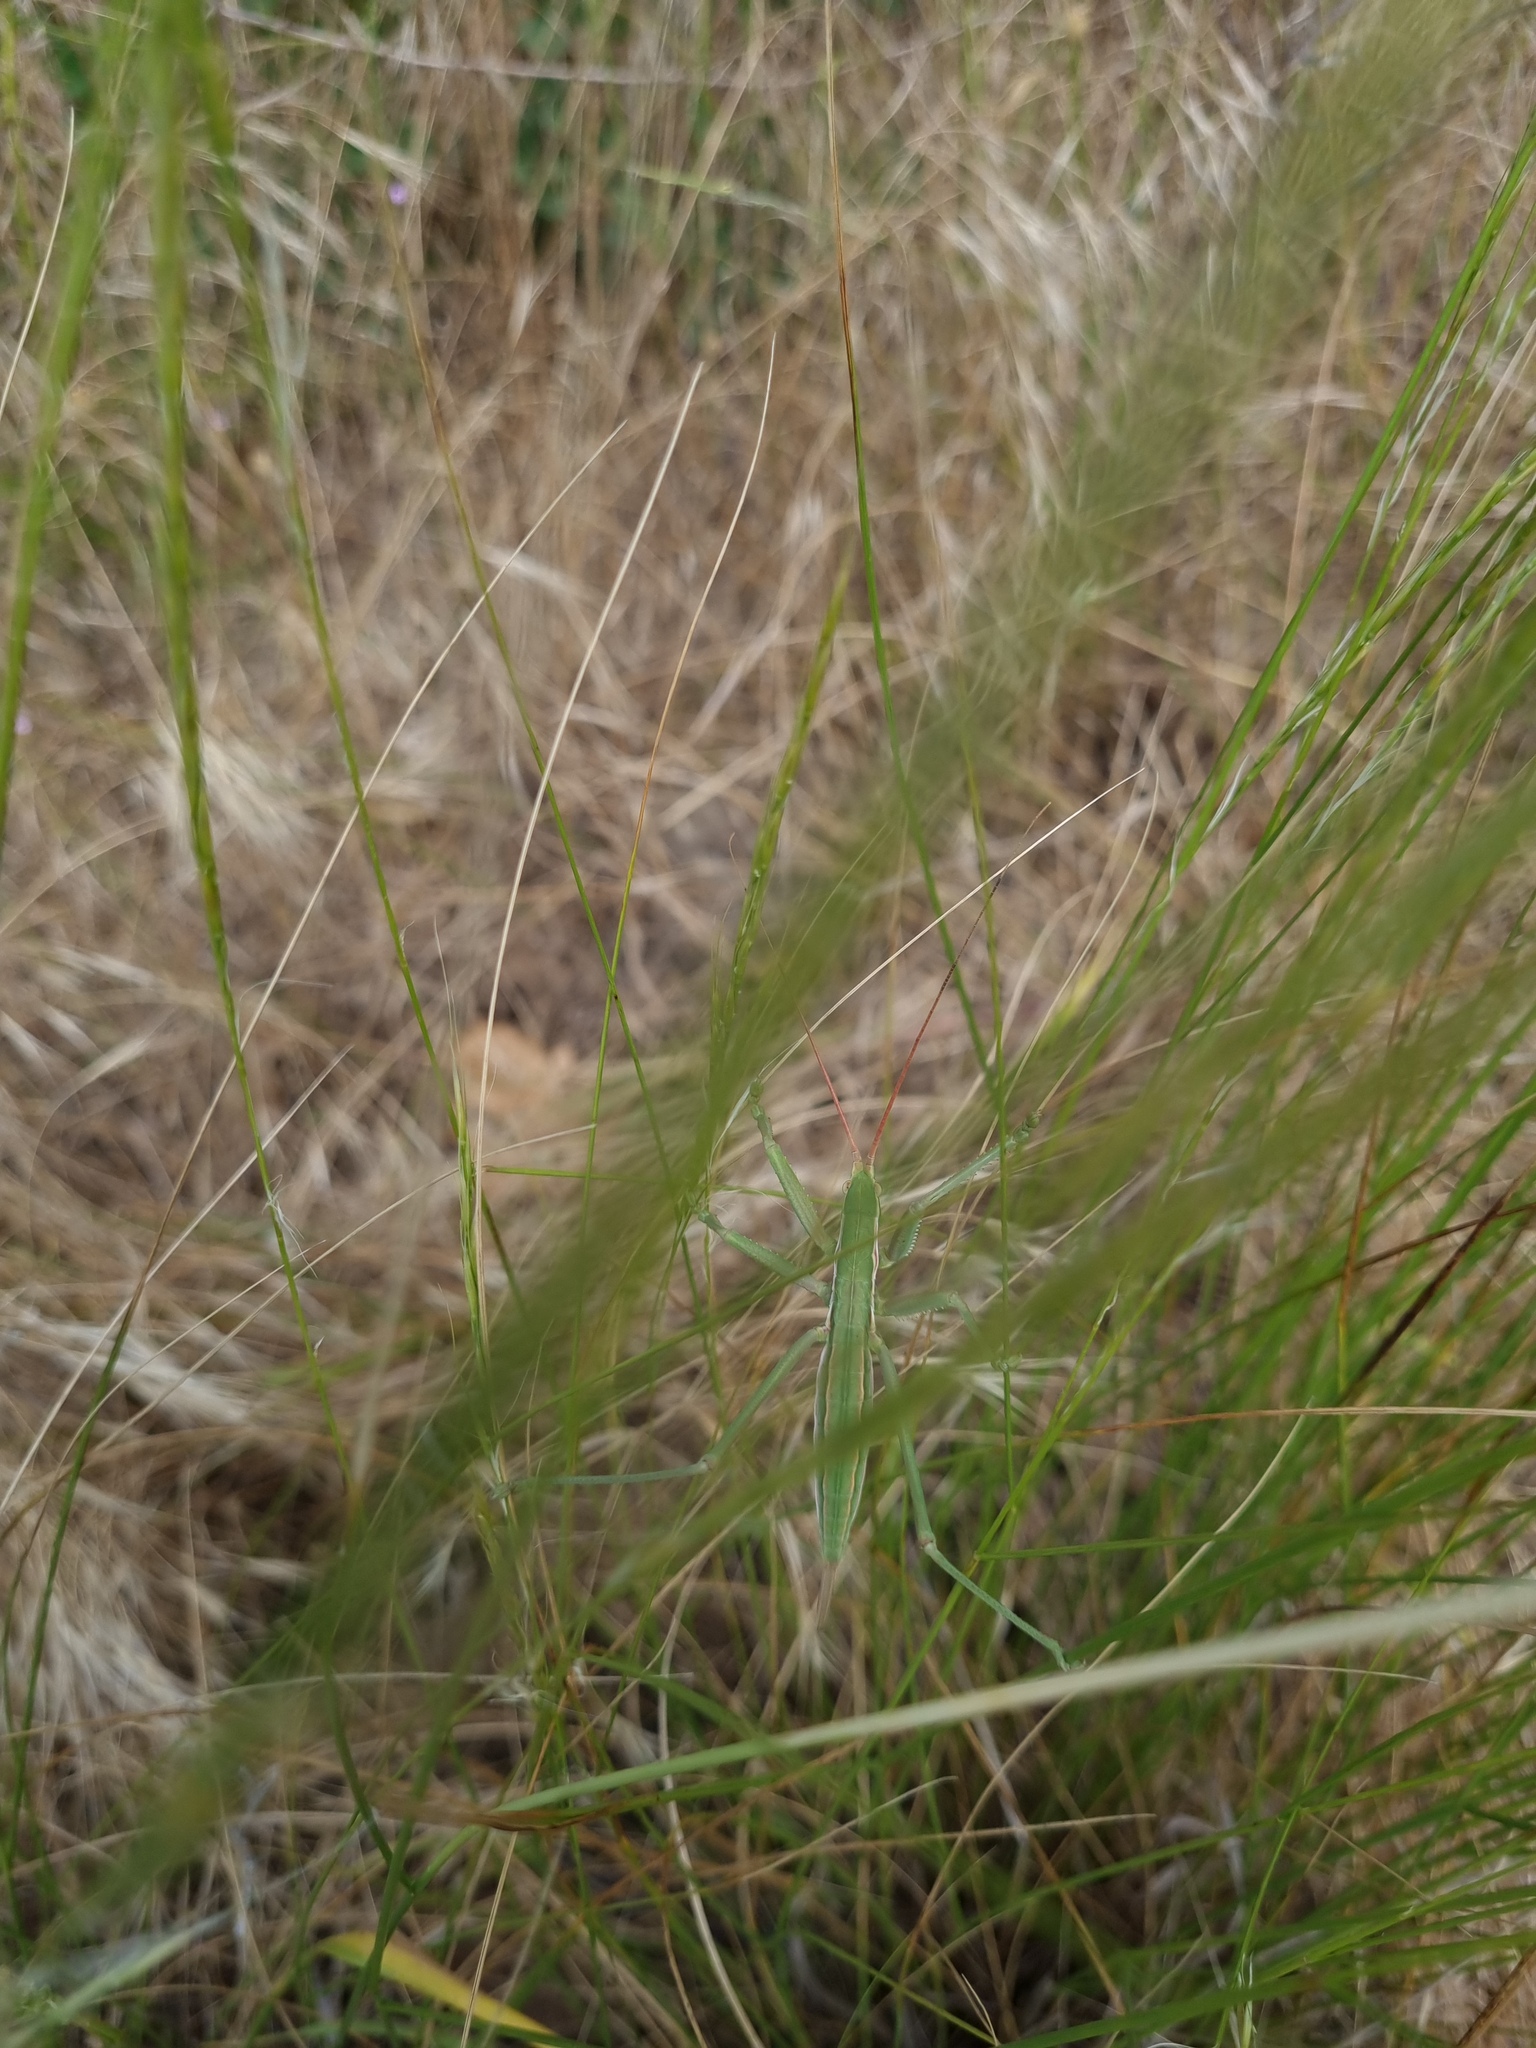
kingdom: Animalia
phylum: Arthropoda
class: Insecta
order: Orthoptera
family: Tettigoniidae
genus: Saga
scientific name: Saga pedo
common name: Common predatory bush-cricket
